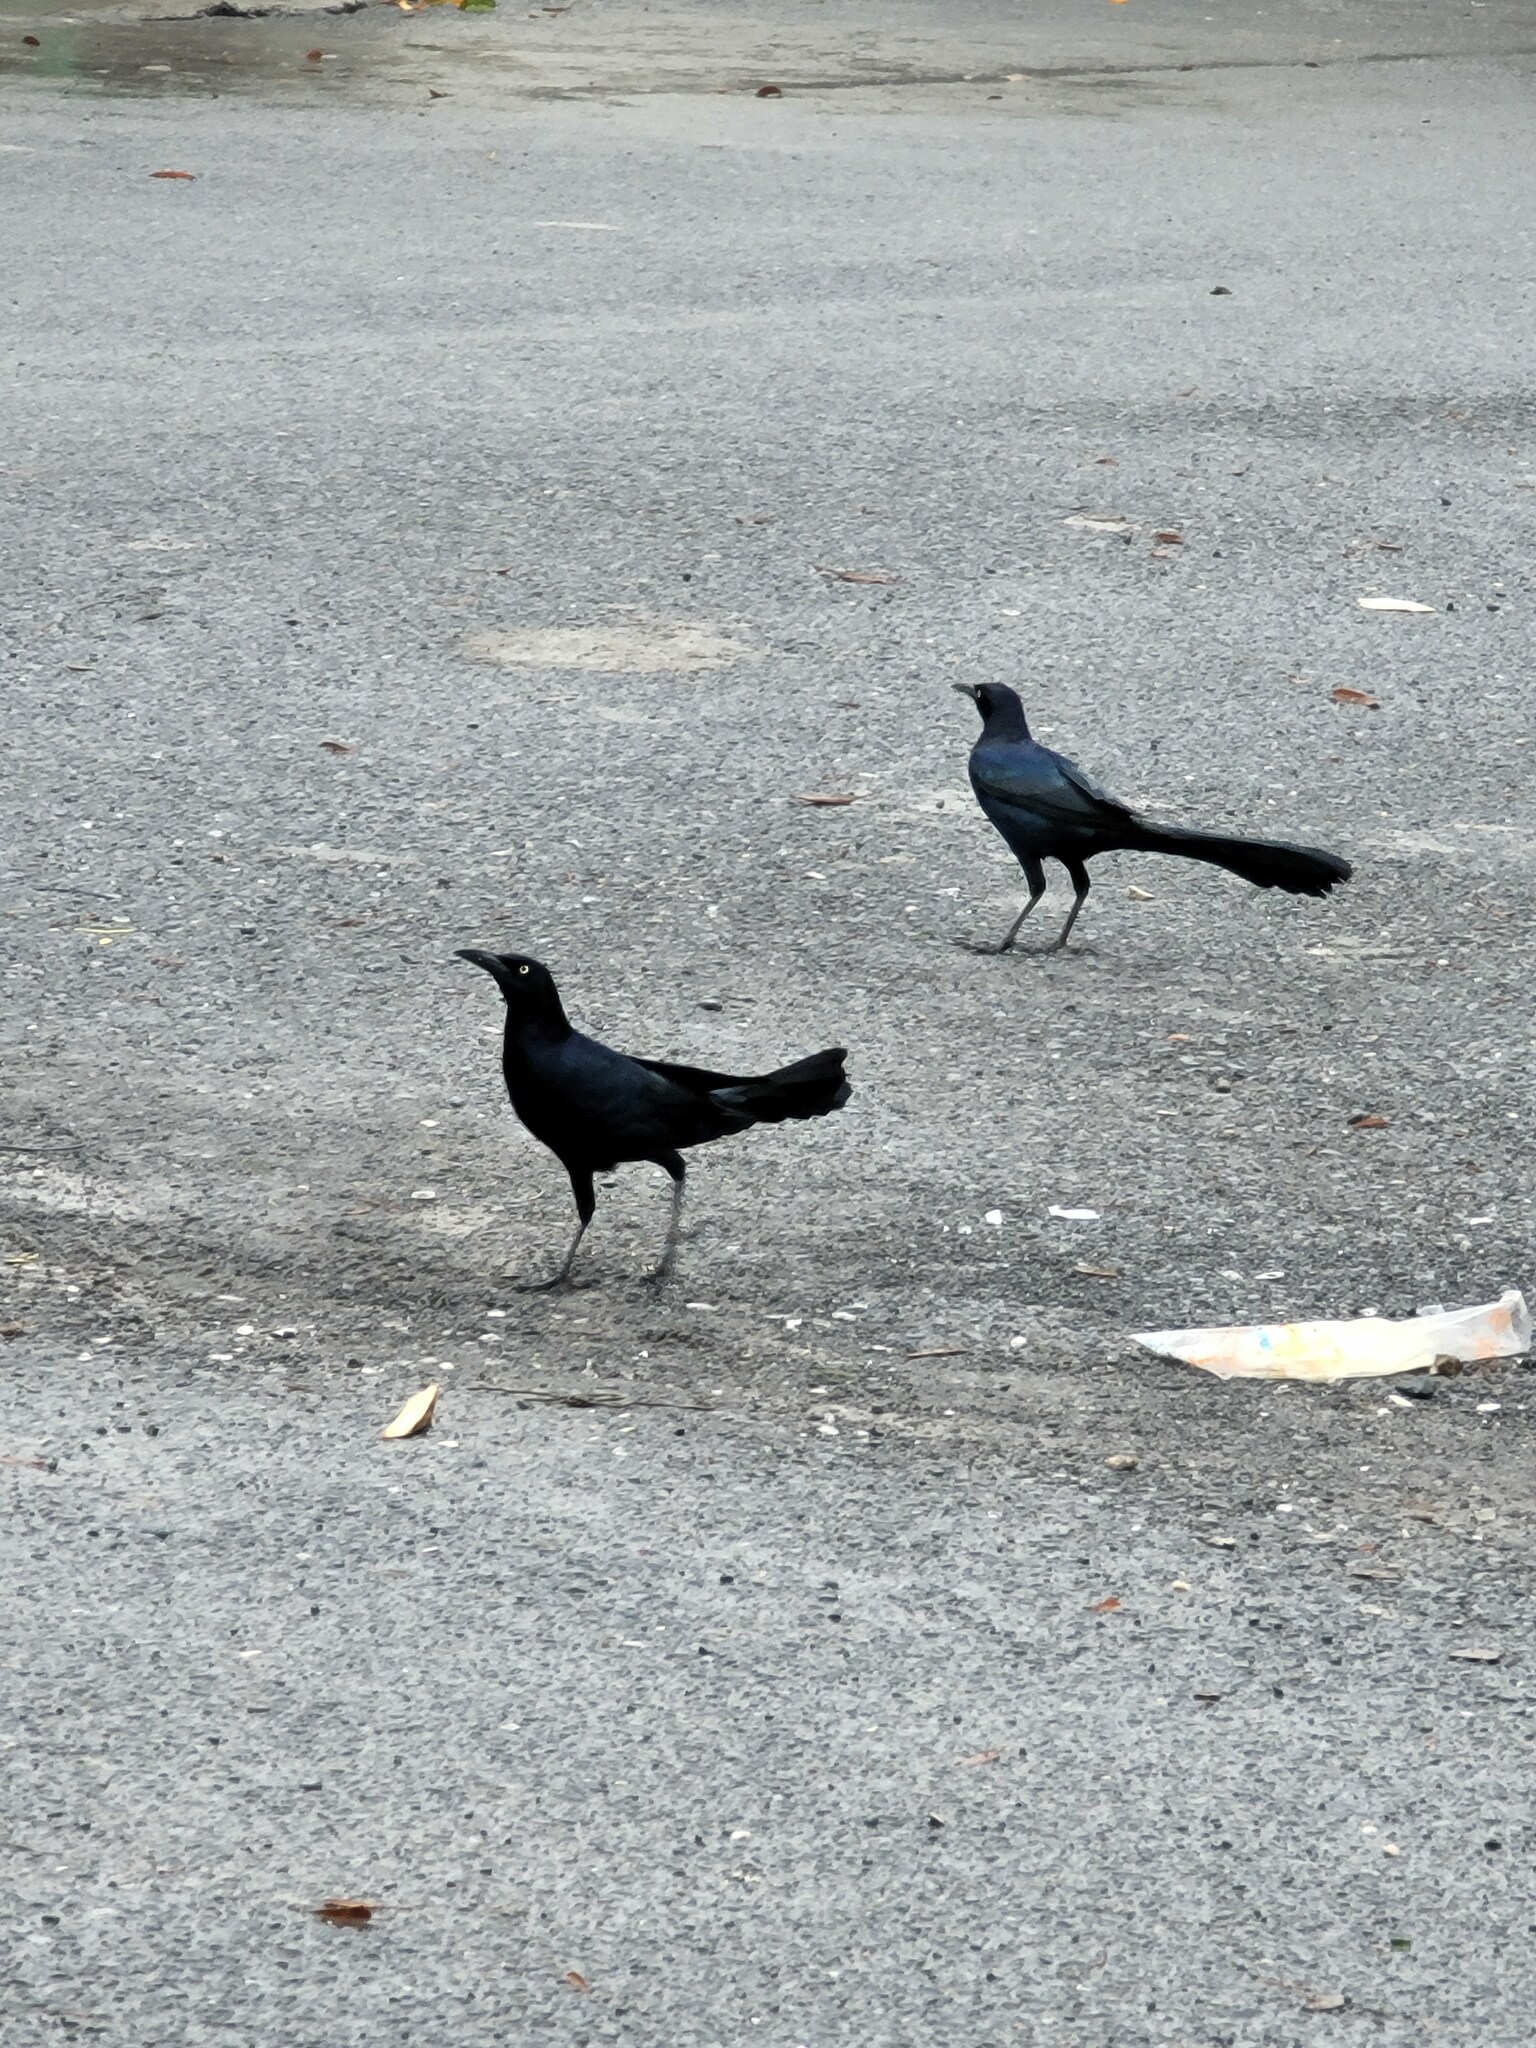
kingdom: Animalia
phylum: Chordata
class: Aves
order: Passeriformes
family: Icteridae
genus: Quiscalus
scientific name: Quiscalus mexicanus
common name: Great-tailed grackle
